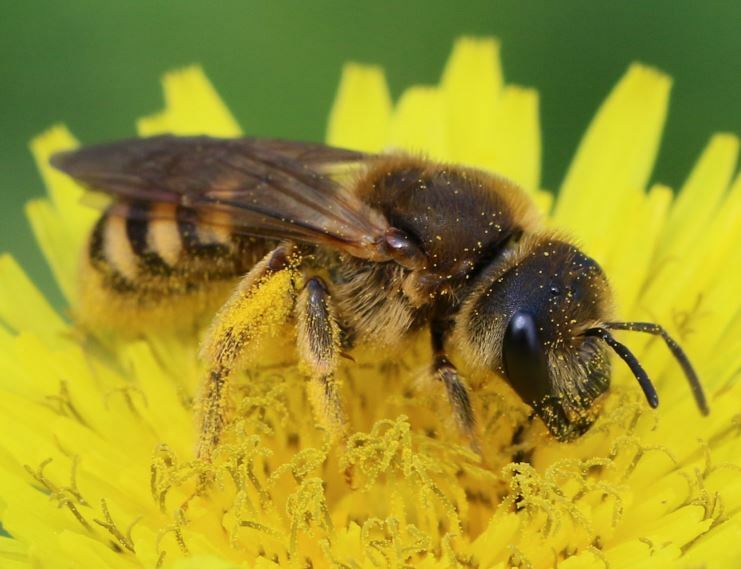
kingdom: Animalia
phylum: Arthropoda
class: Insecta
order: Hymenoptera
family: Halictidae
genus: Halictus
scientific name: Halictus scabiosae
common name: Great banded furrow bee
